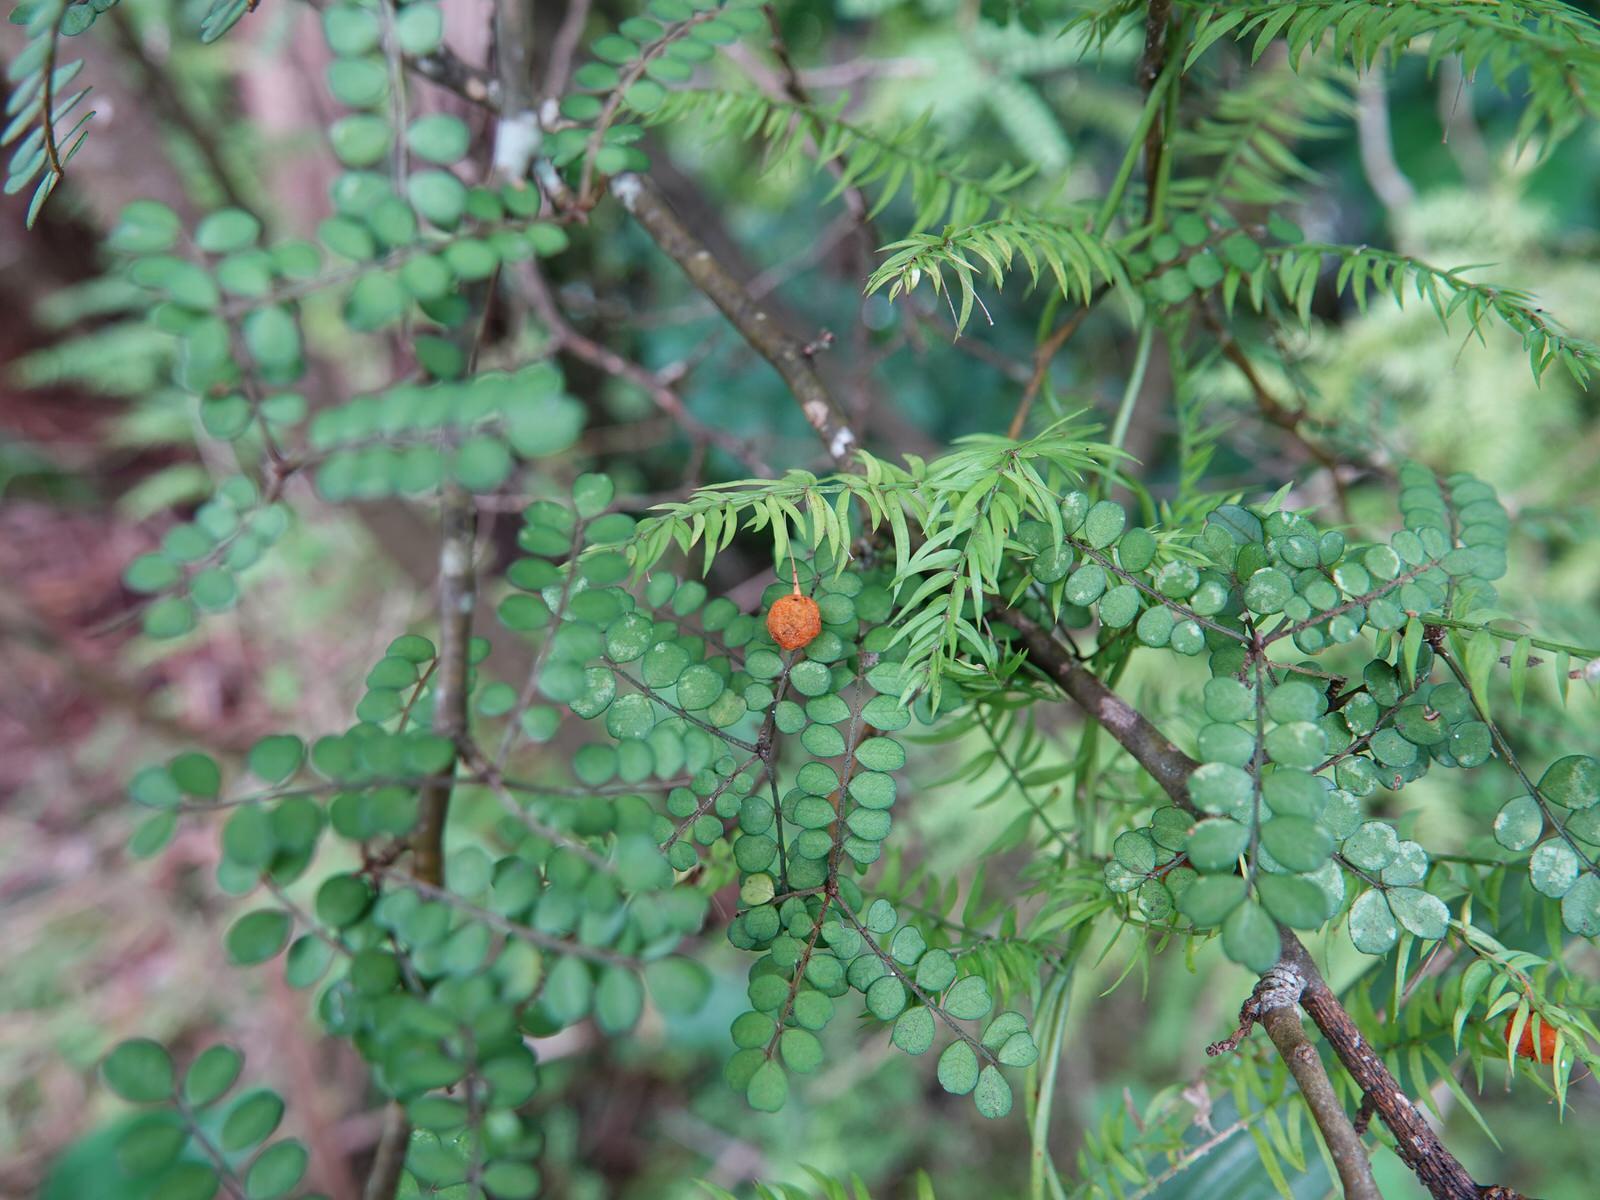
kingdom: Plantae
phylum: Tracheophyta
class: Liliopsida
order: Asparagales
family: Asparagaceae
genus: Asparagus
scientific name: Asparagus scandens
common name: Asparagus-fern
